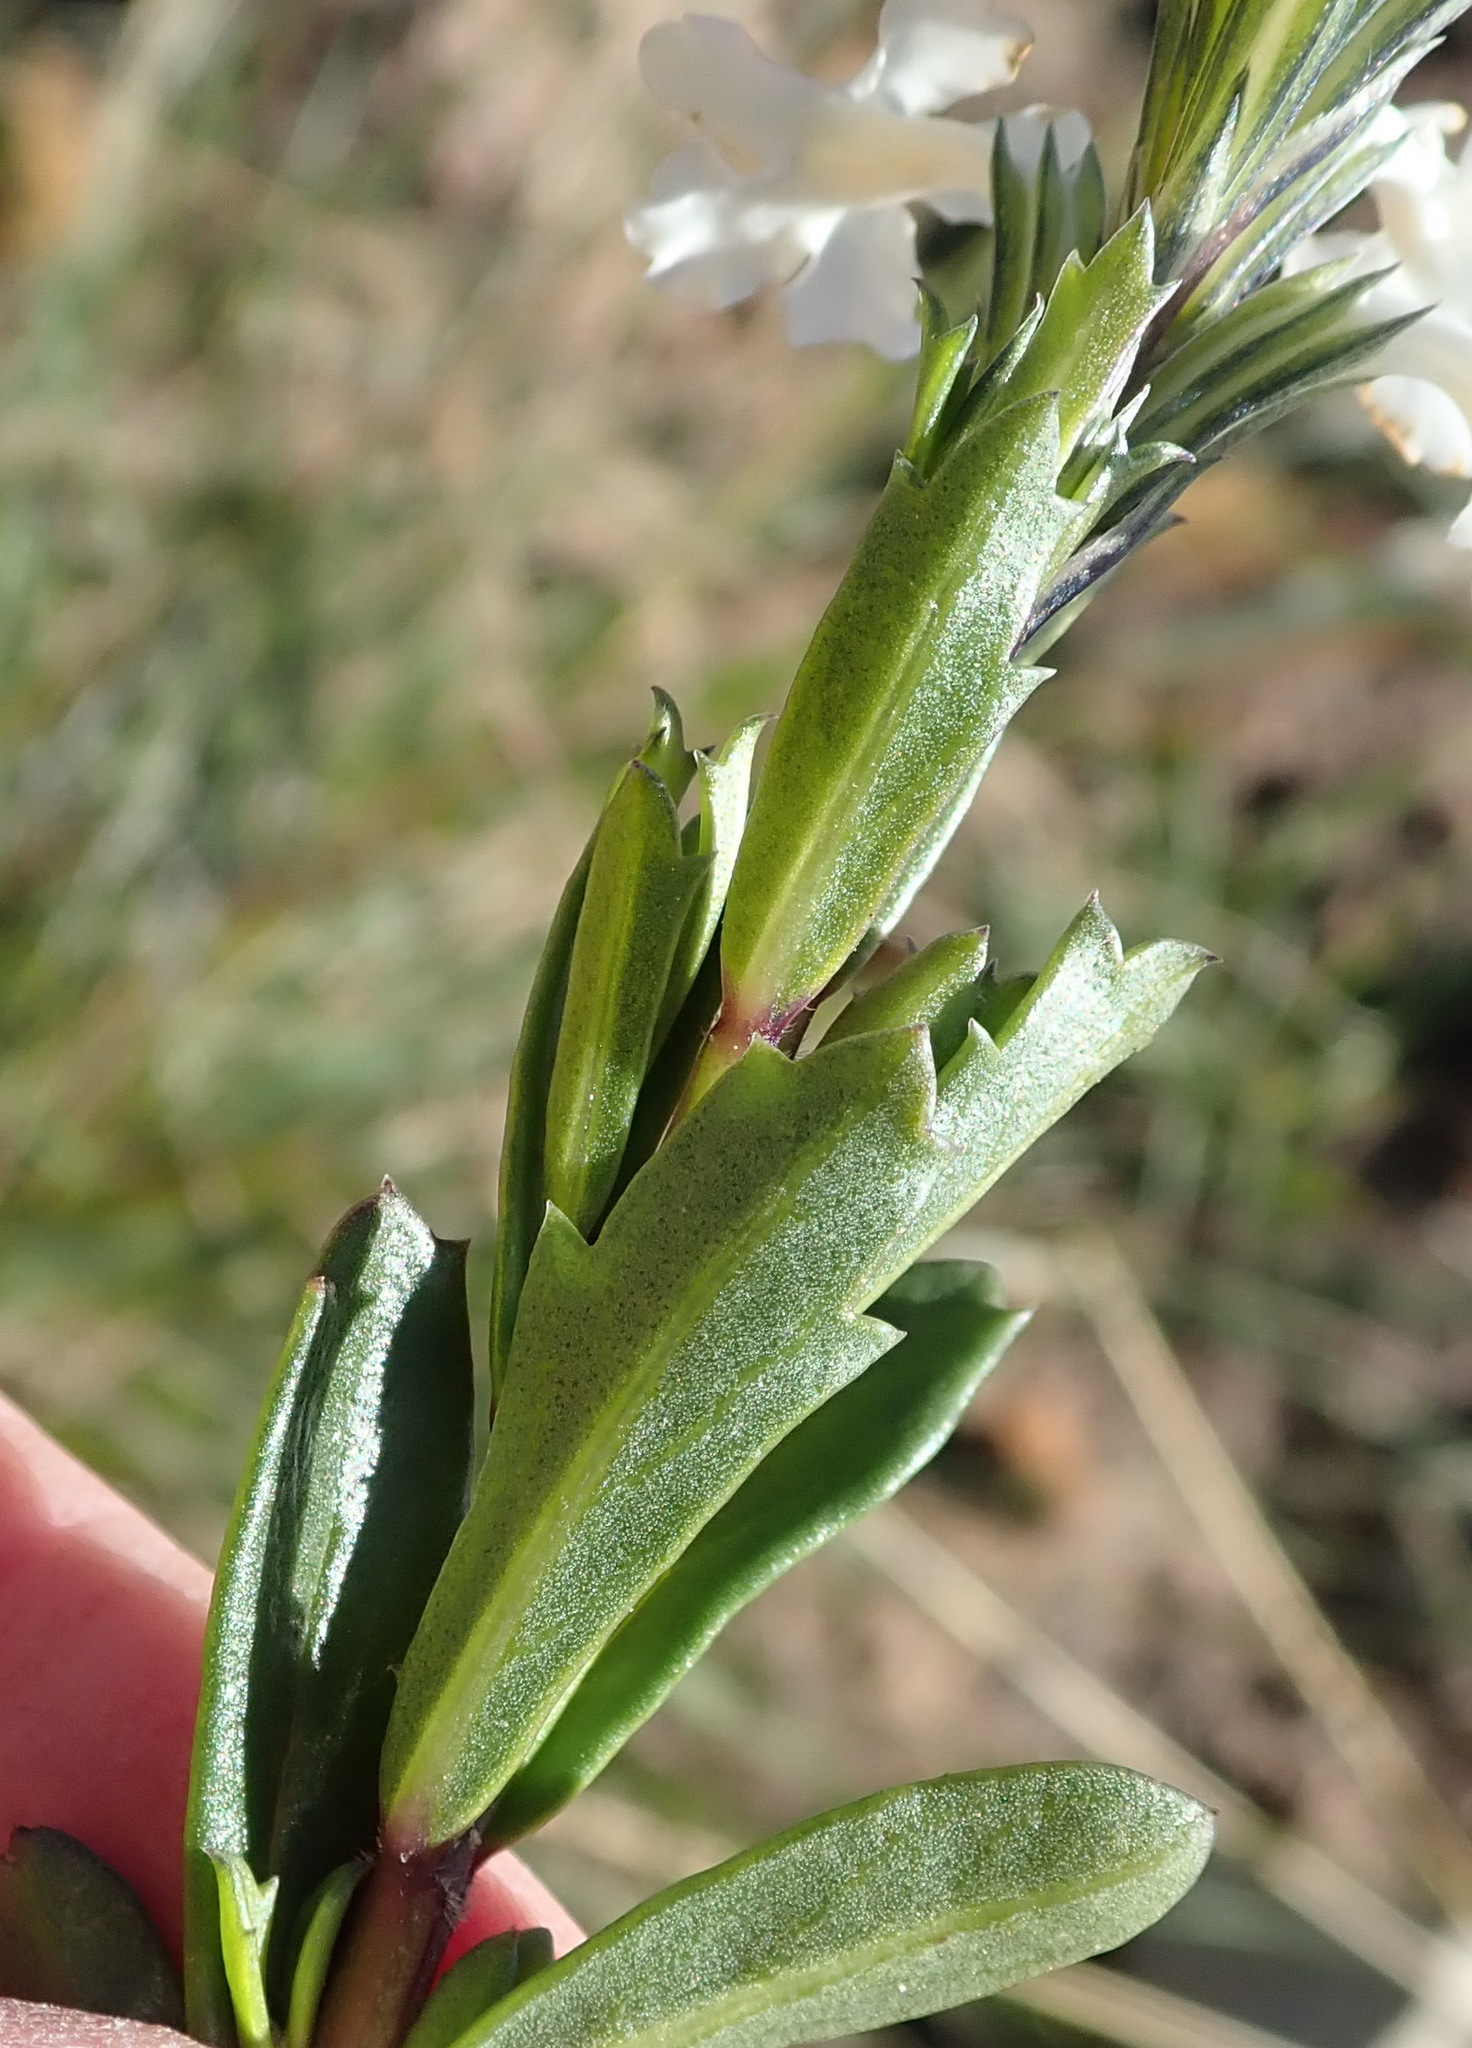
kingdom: Plantae
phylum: Tracheophyta
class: Magnoliopsida
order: Lamiales
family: Verbenaceae
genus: Chascanum
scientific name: Chascanum cernuum
